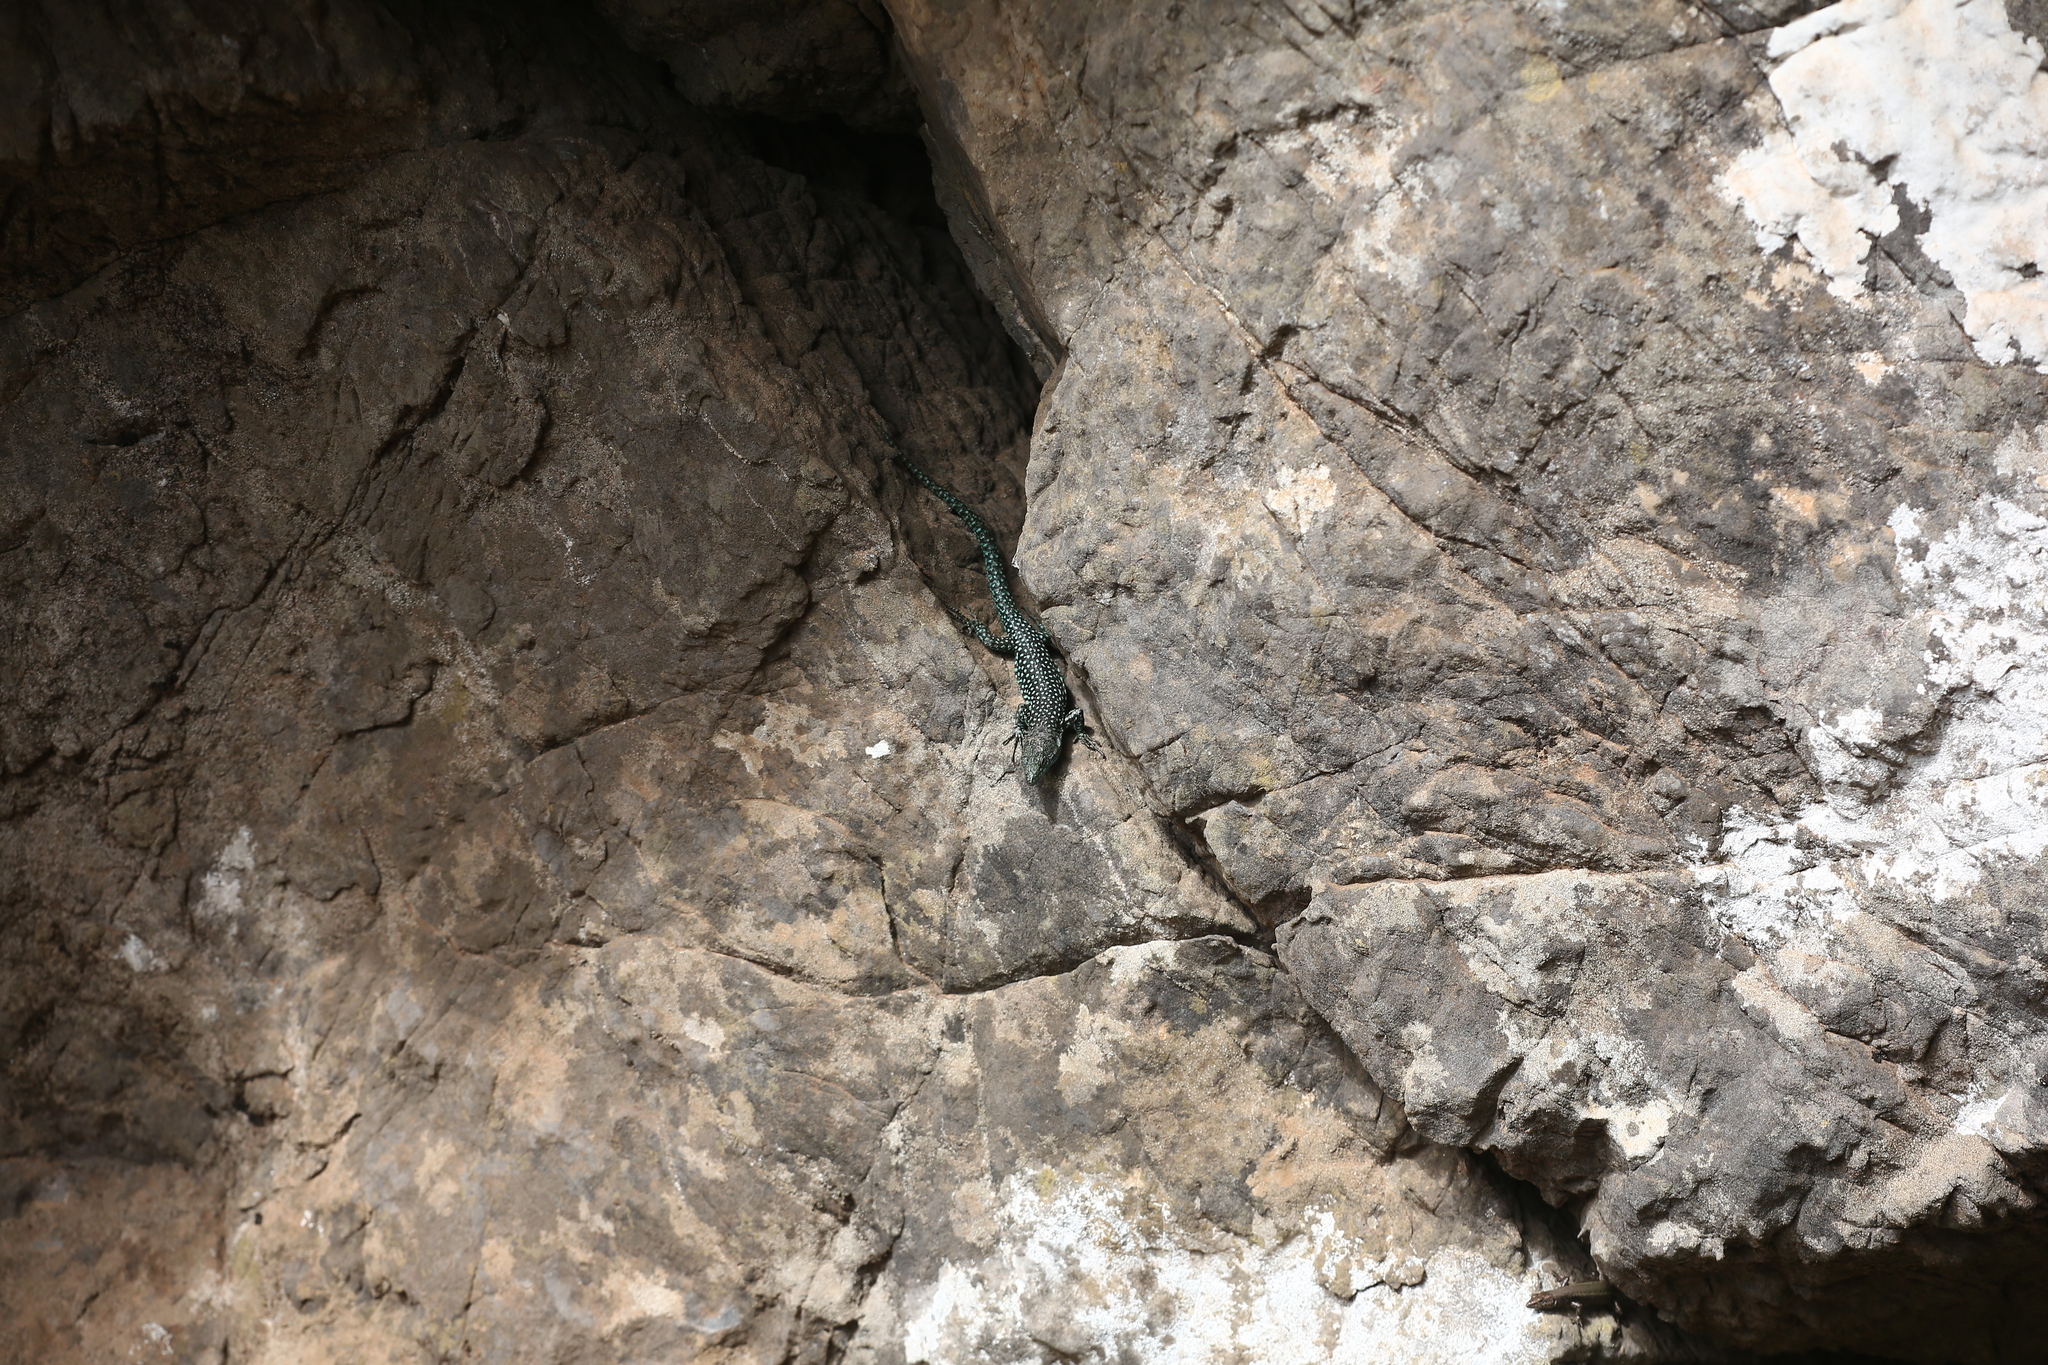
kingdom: Animalia
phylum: Chordata
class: Squamata
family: Lacertidae
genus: Scelarcis
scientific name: Scelarcis perspicillata
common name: Moroccan rock lizard
